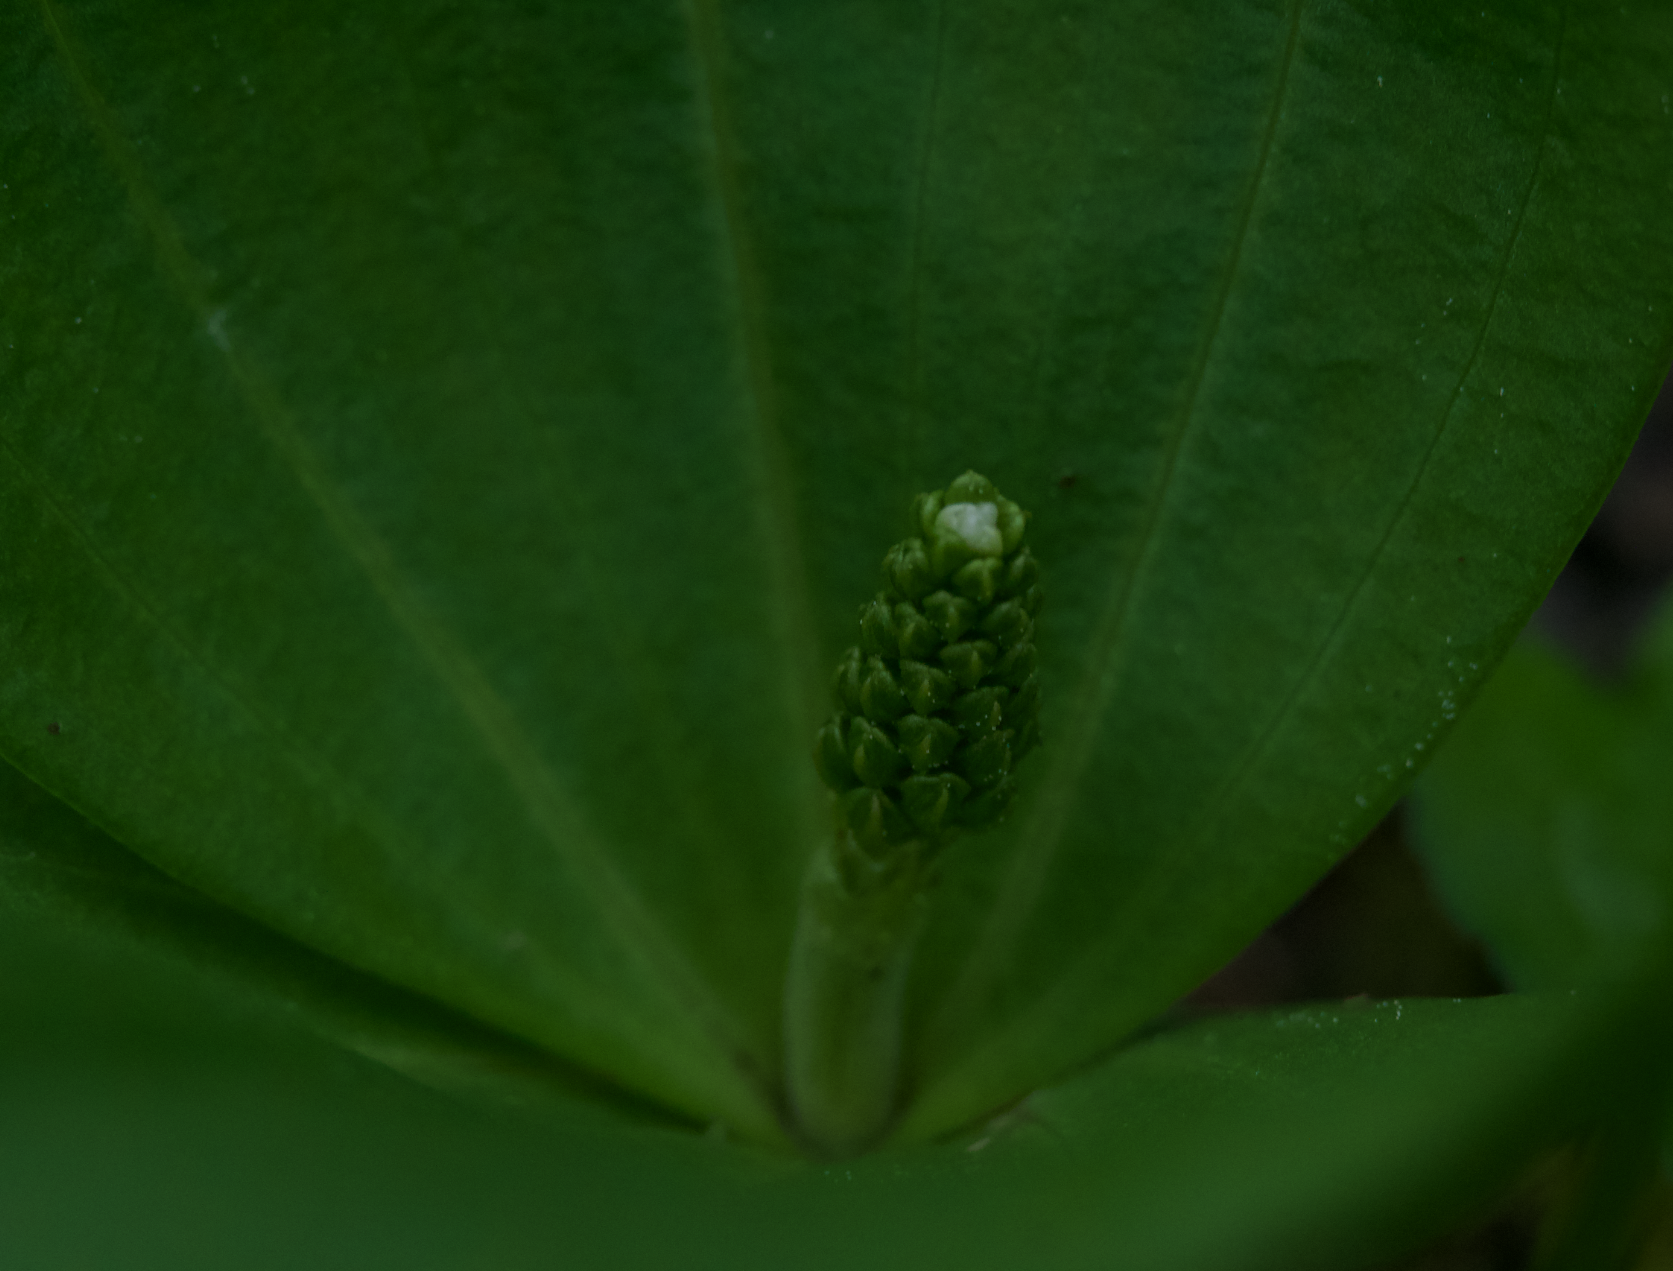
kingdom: Plantae
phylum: Tracheophyta
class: Liliopsida
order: Asparagales
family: Orchidaceae
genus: Neottia
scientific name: Neottia ovata
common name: Common twayblade
